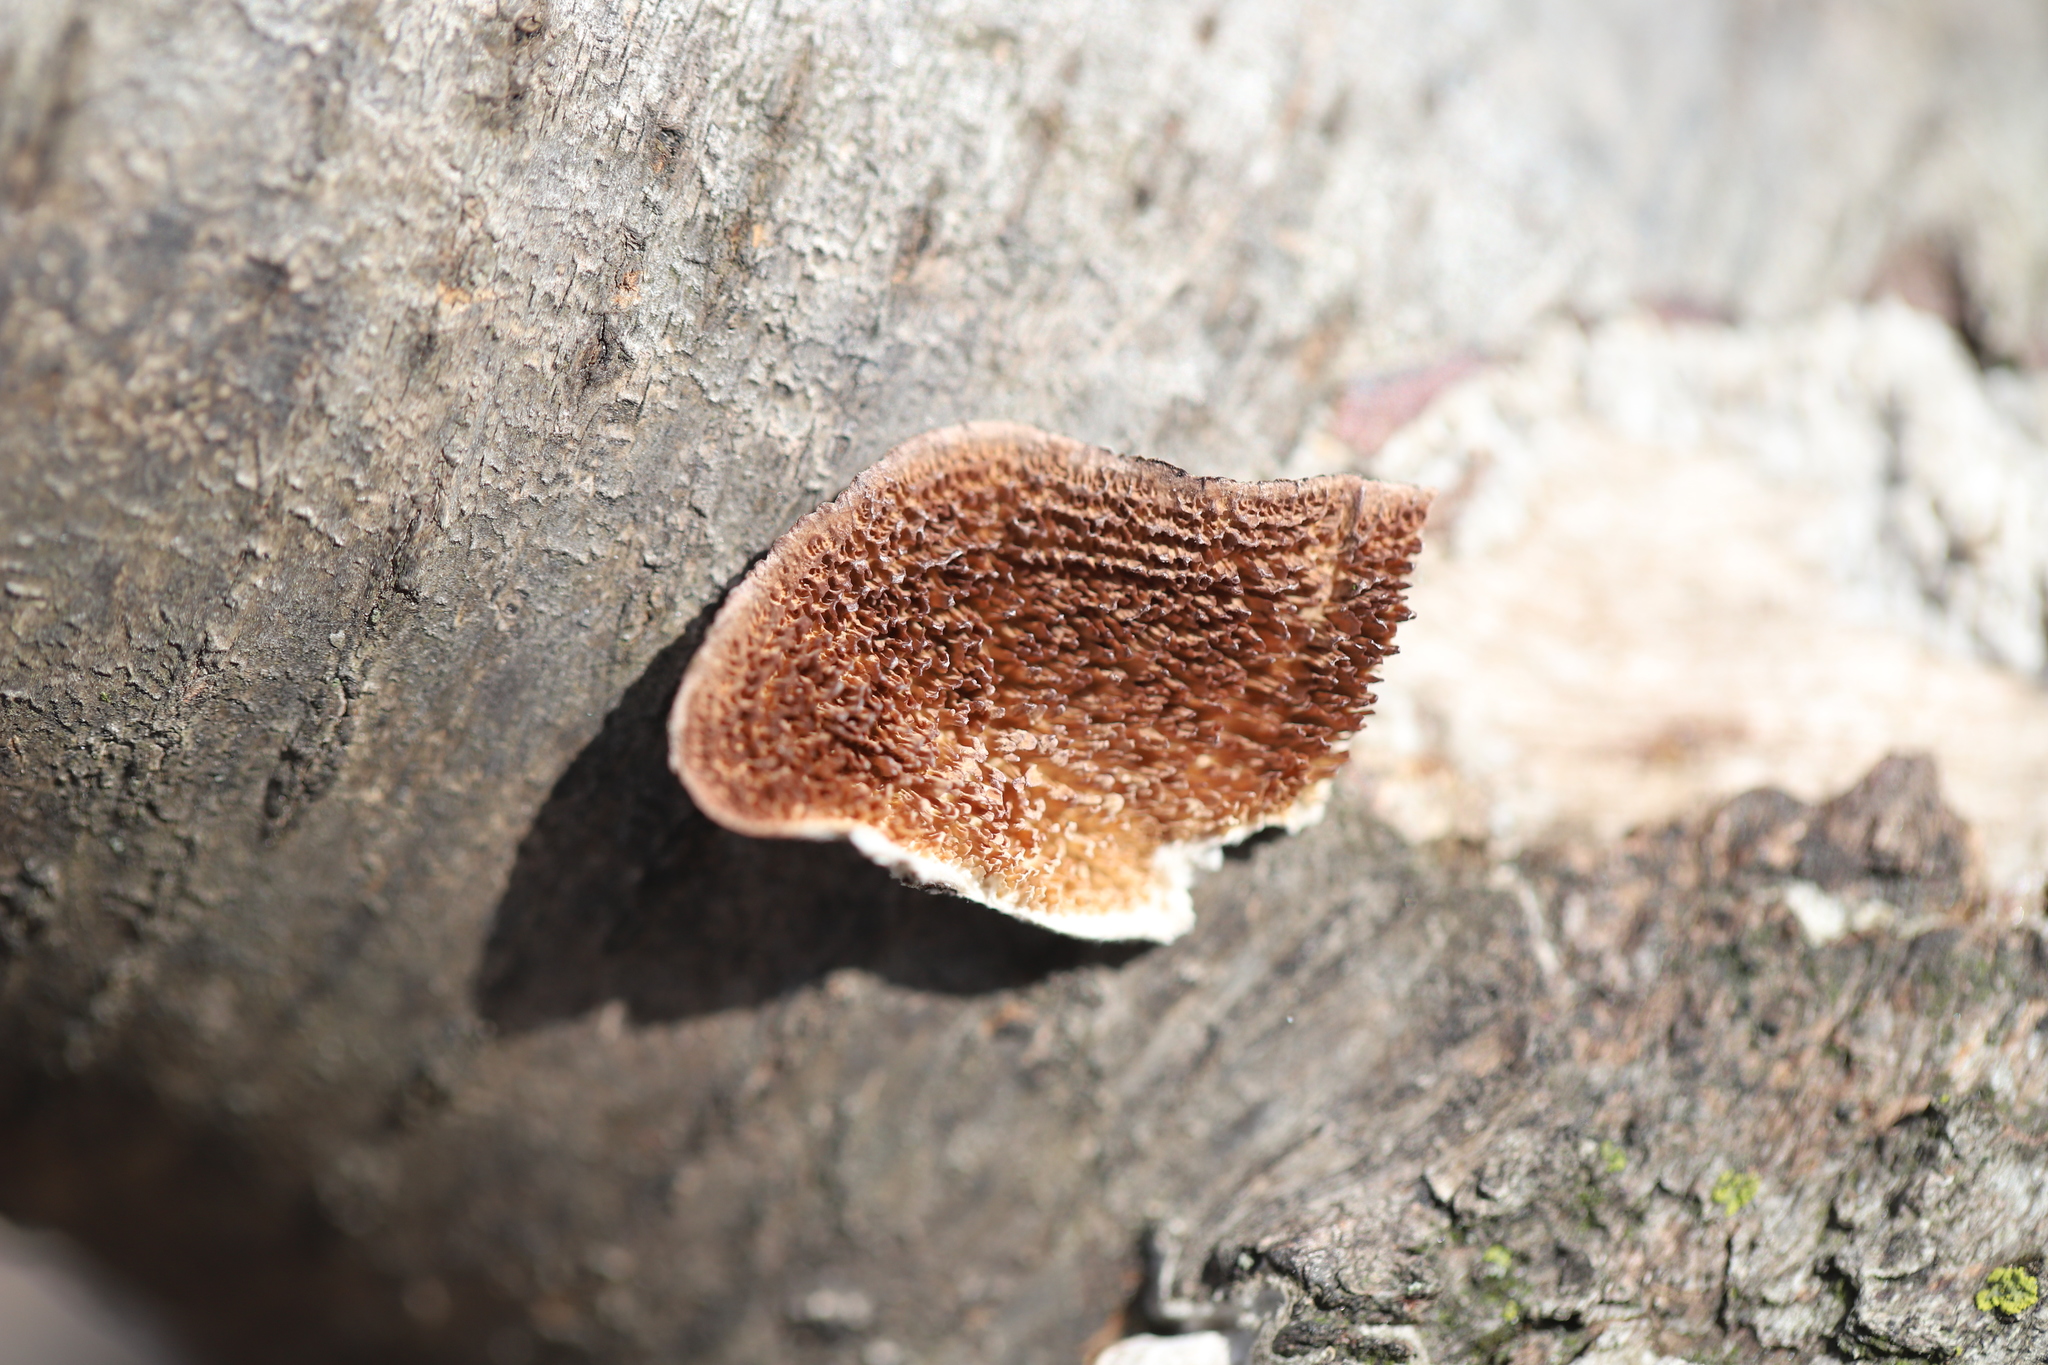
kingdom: Fungi
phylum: Basidiomycota
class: Agaricomycetes
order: Hymenochaetales
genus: Trichaptum
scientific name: Trichaptum biforme
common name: Violet-toothed polypore
